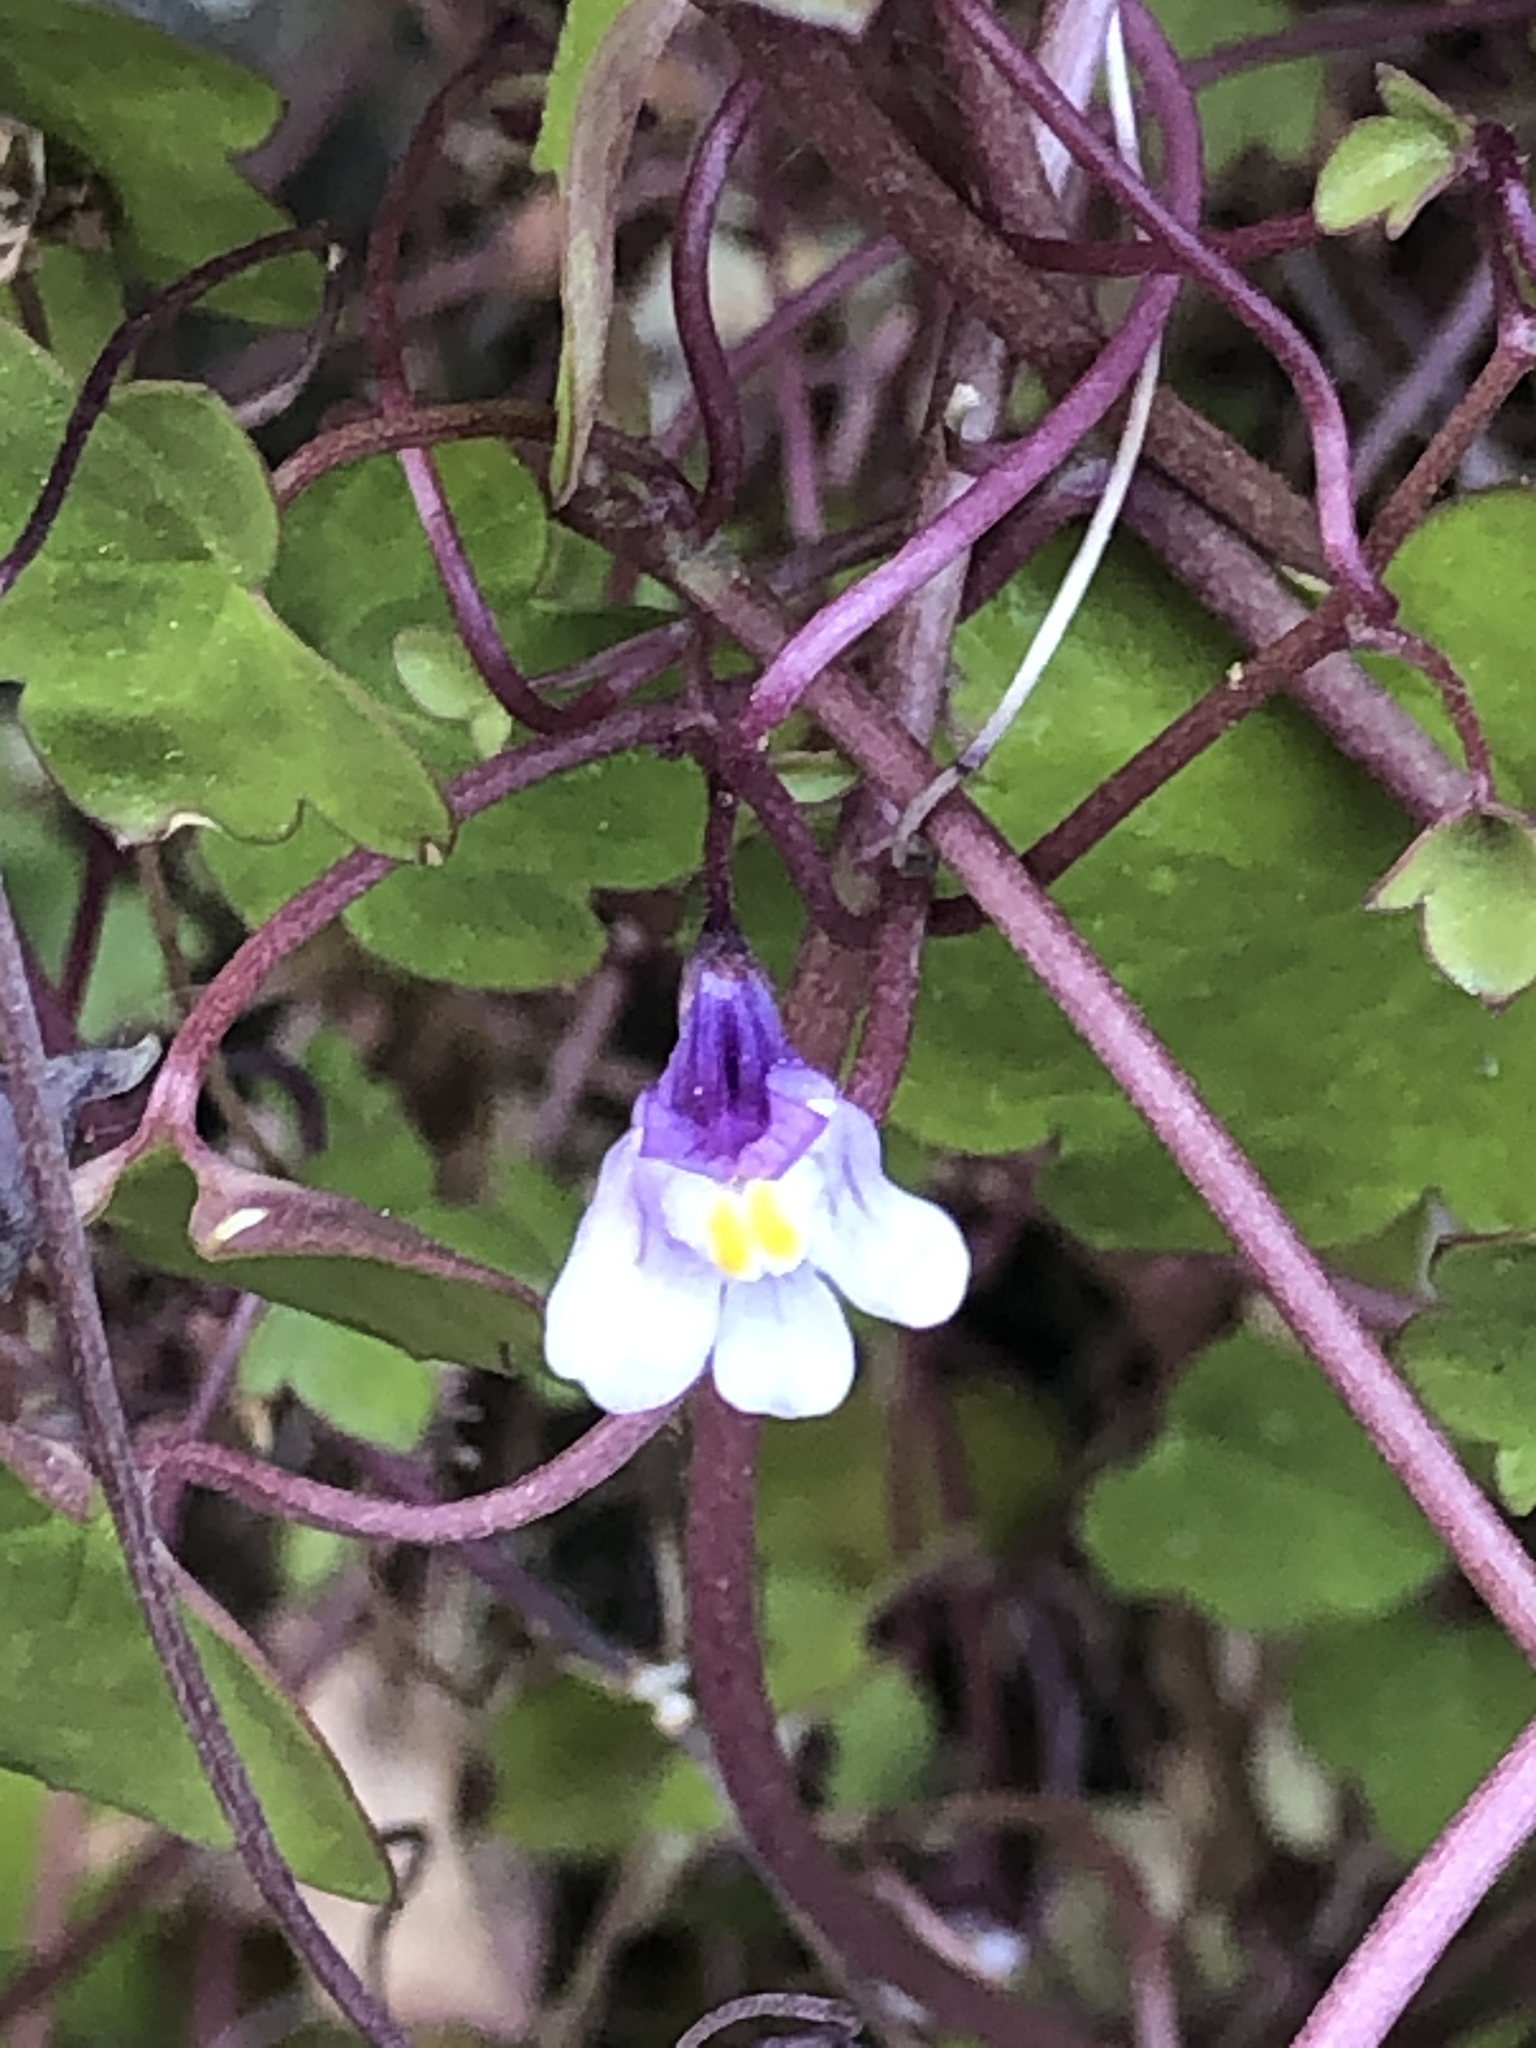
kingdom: Plantae
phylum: Tracheophyta
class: Magnoliopsida
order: Lamiales
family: Plantaginaceae
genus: Cymbalaria
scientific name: Cymbalaria muralis
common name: Ivy-leaved toadflax
